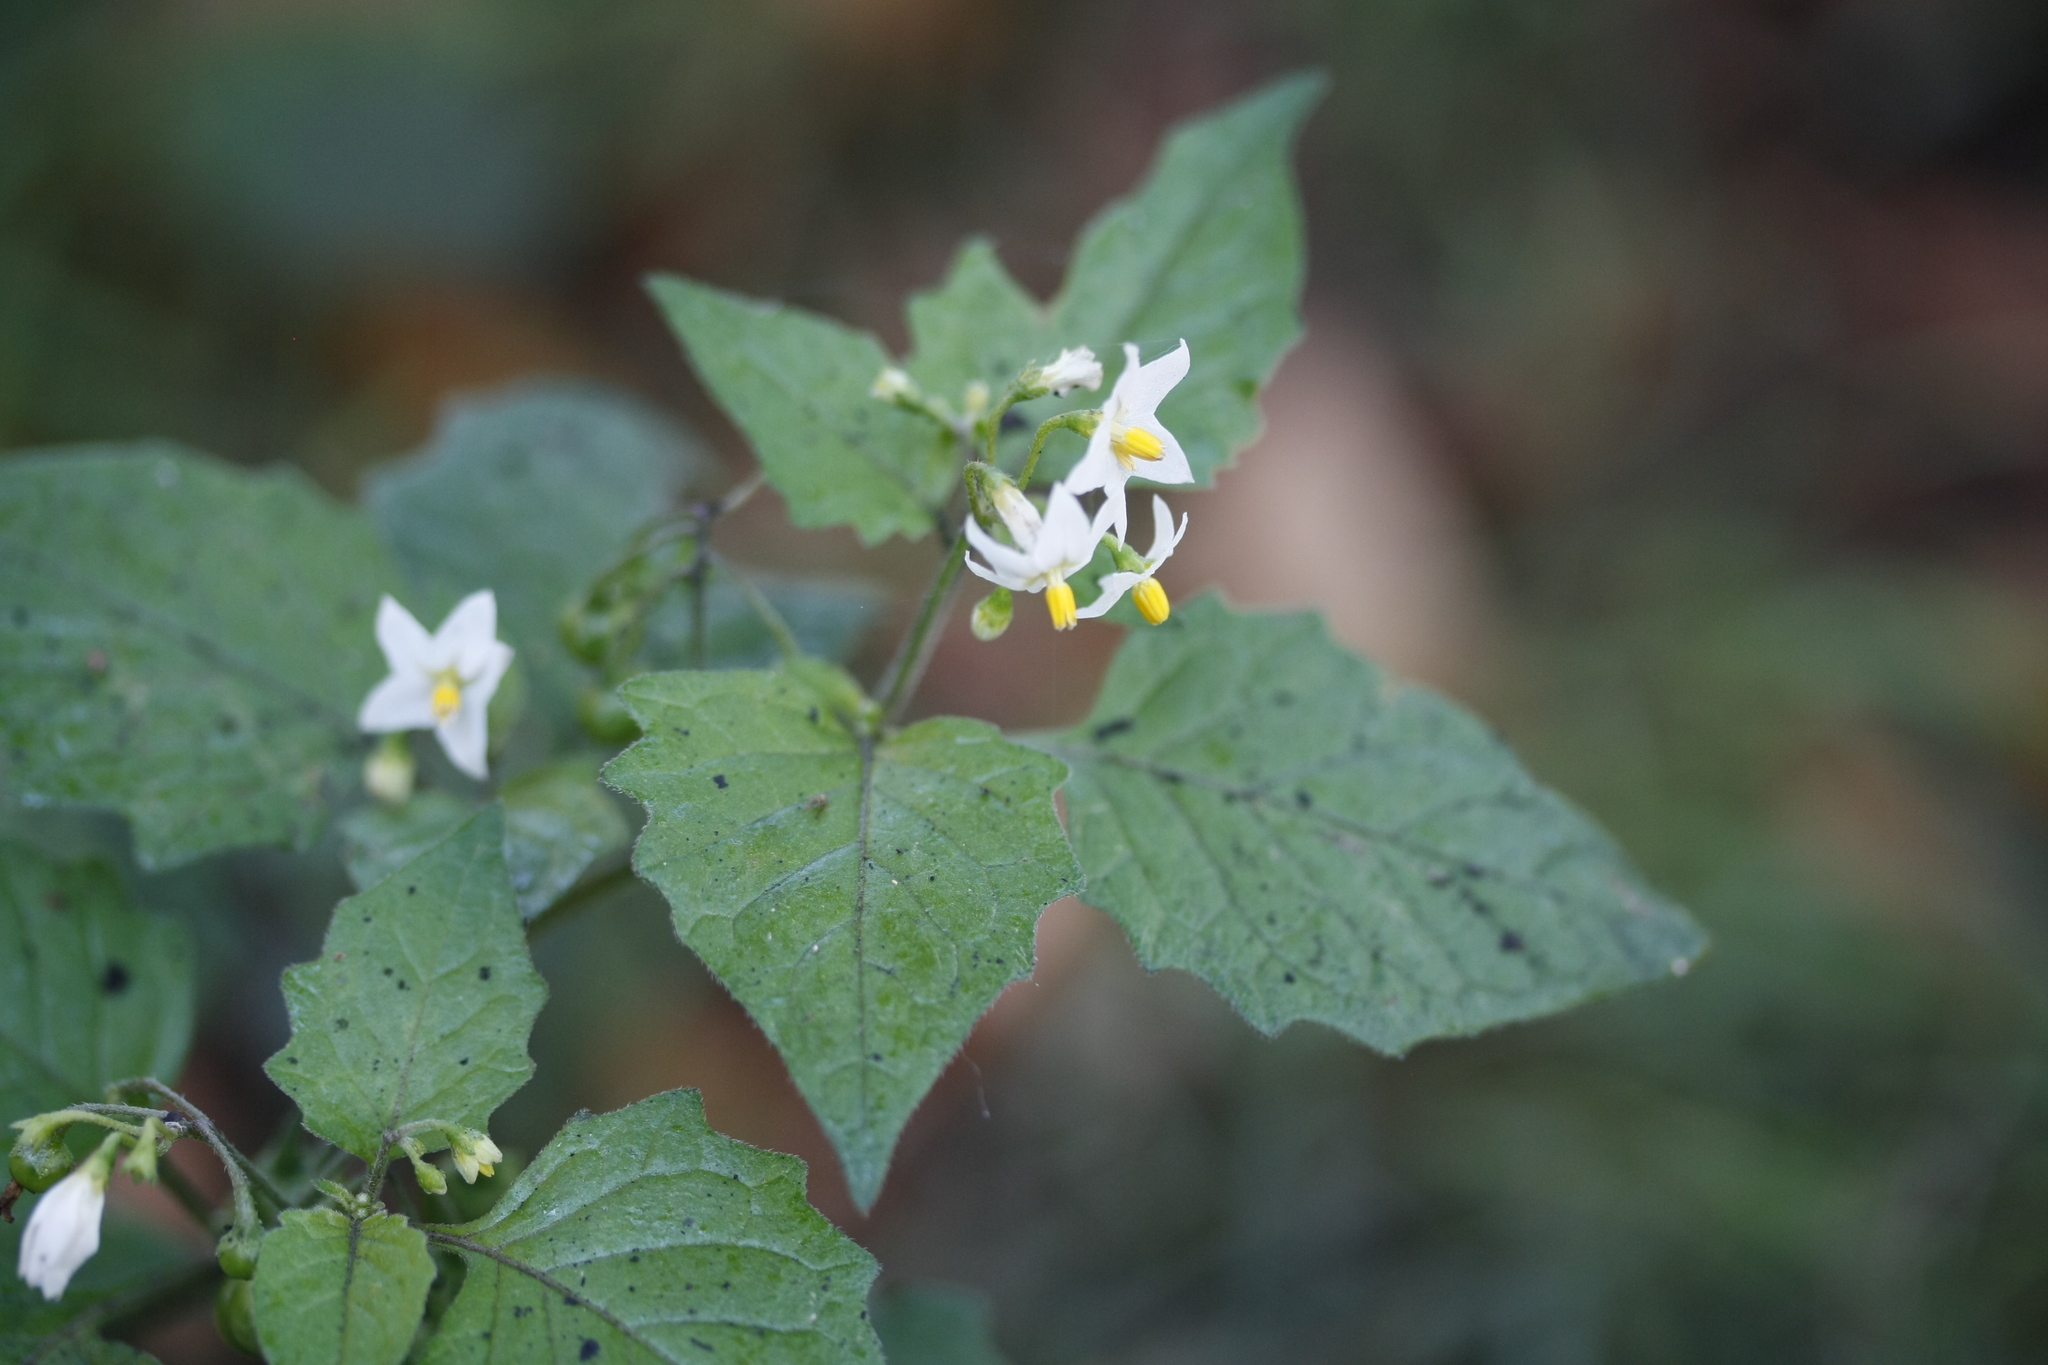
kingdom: Plantae
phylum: Tracheophyta
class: Magnoliopsida
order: Solanales
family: Solanaceae
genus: Solanum
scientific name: Solanum nigrum
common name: Black nightshade
